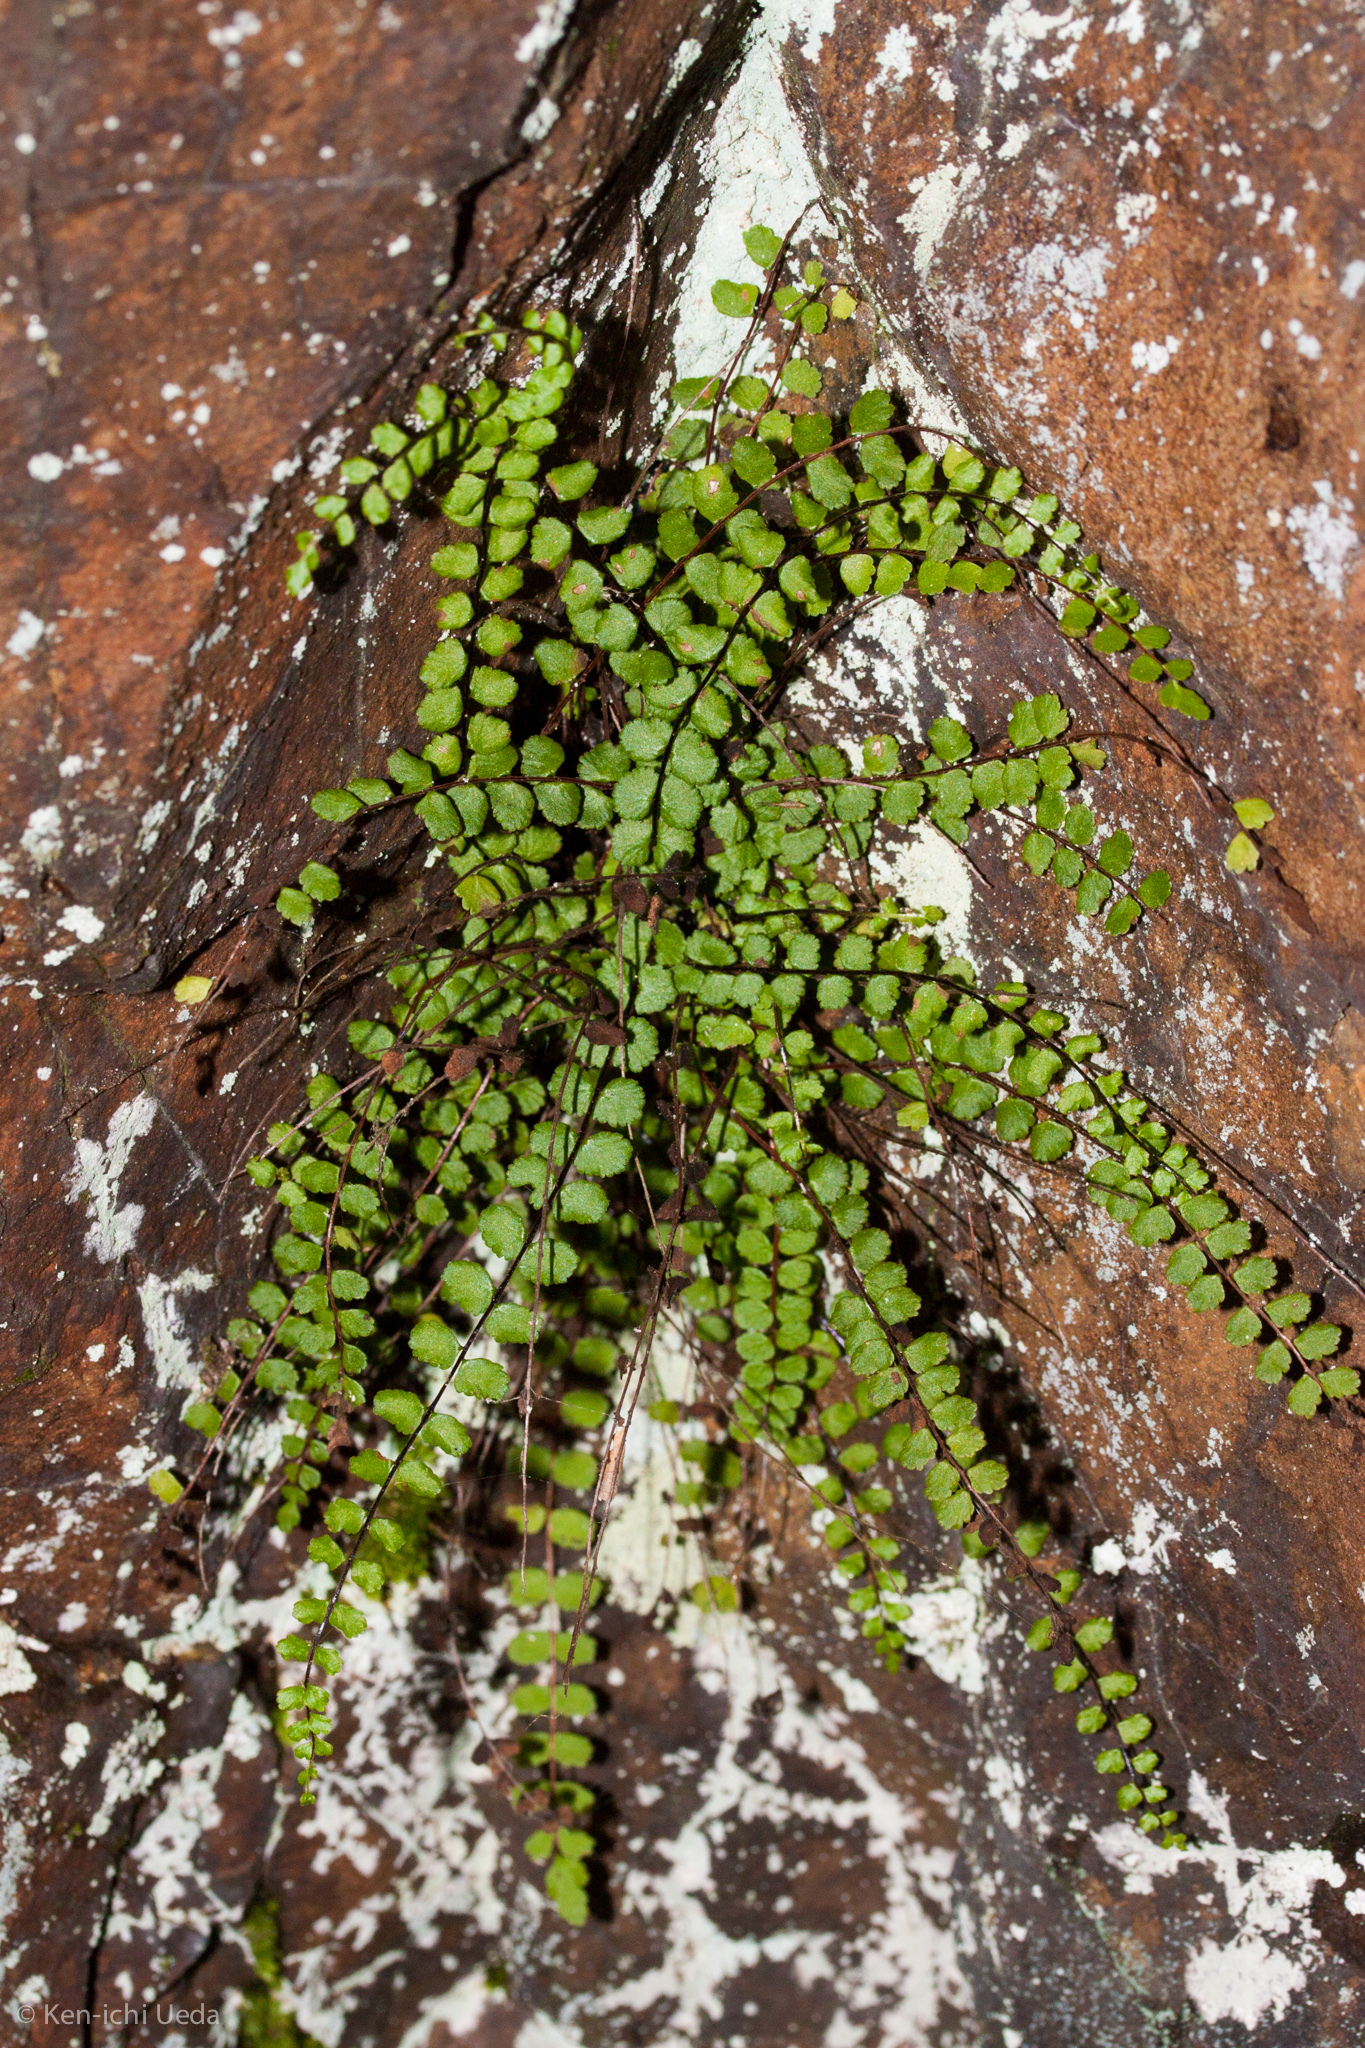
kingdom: Plantae
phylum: Tracheophyta
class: Polypodiopsida
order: Polypodiales
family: Aspleniaceae
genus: Asplenium
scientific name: Asplenium trichomanes
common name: Maidenhair spleenwort
